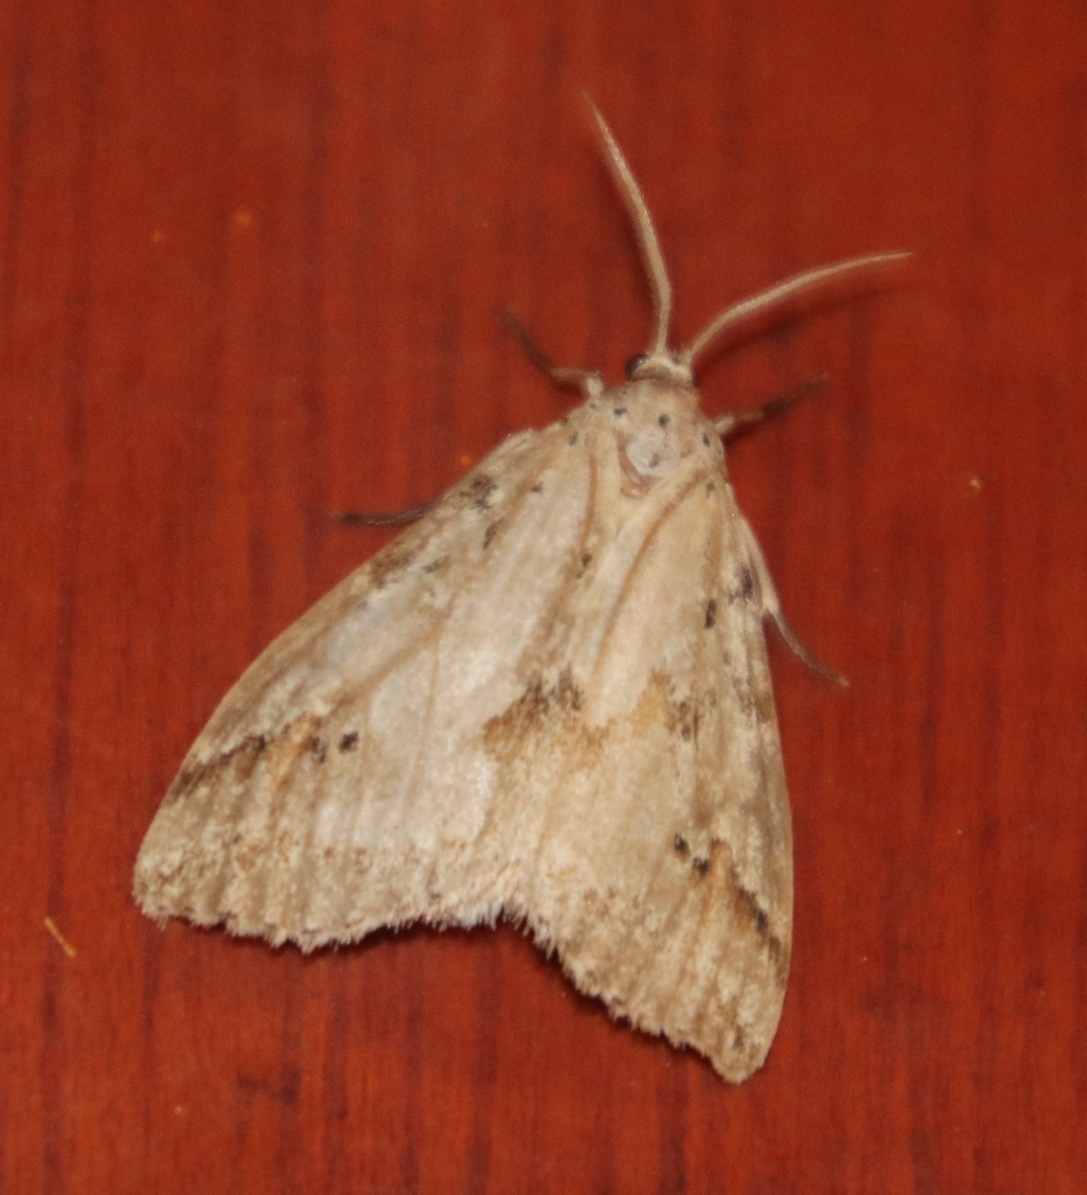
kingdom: Animalia
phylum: Arthropoda
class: Insecta
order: Lepidoptera
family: Erebidae
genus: Galtara
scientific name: Galtara rostrata
